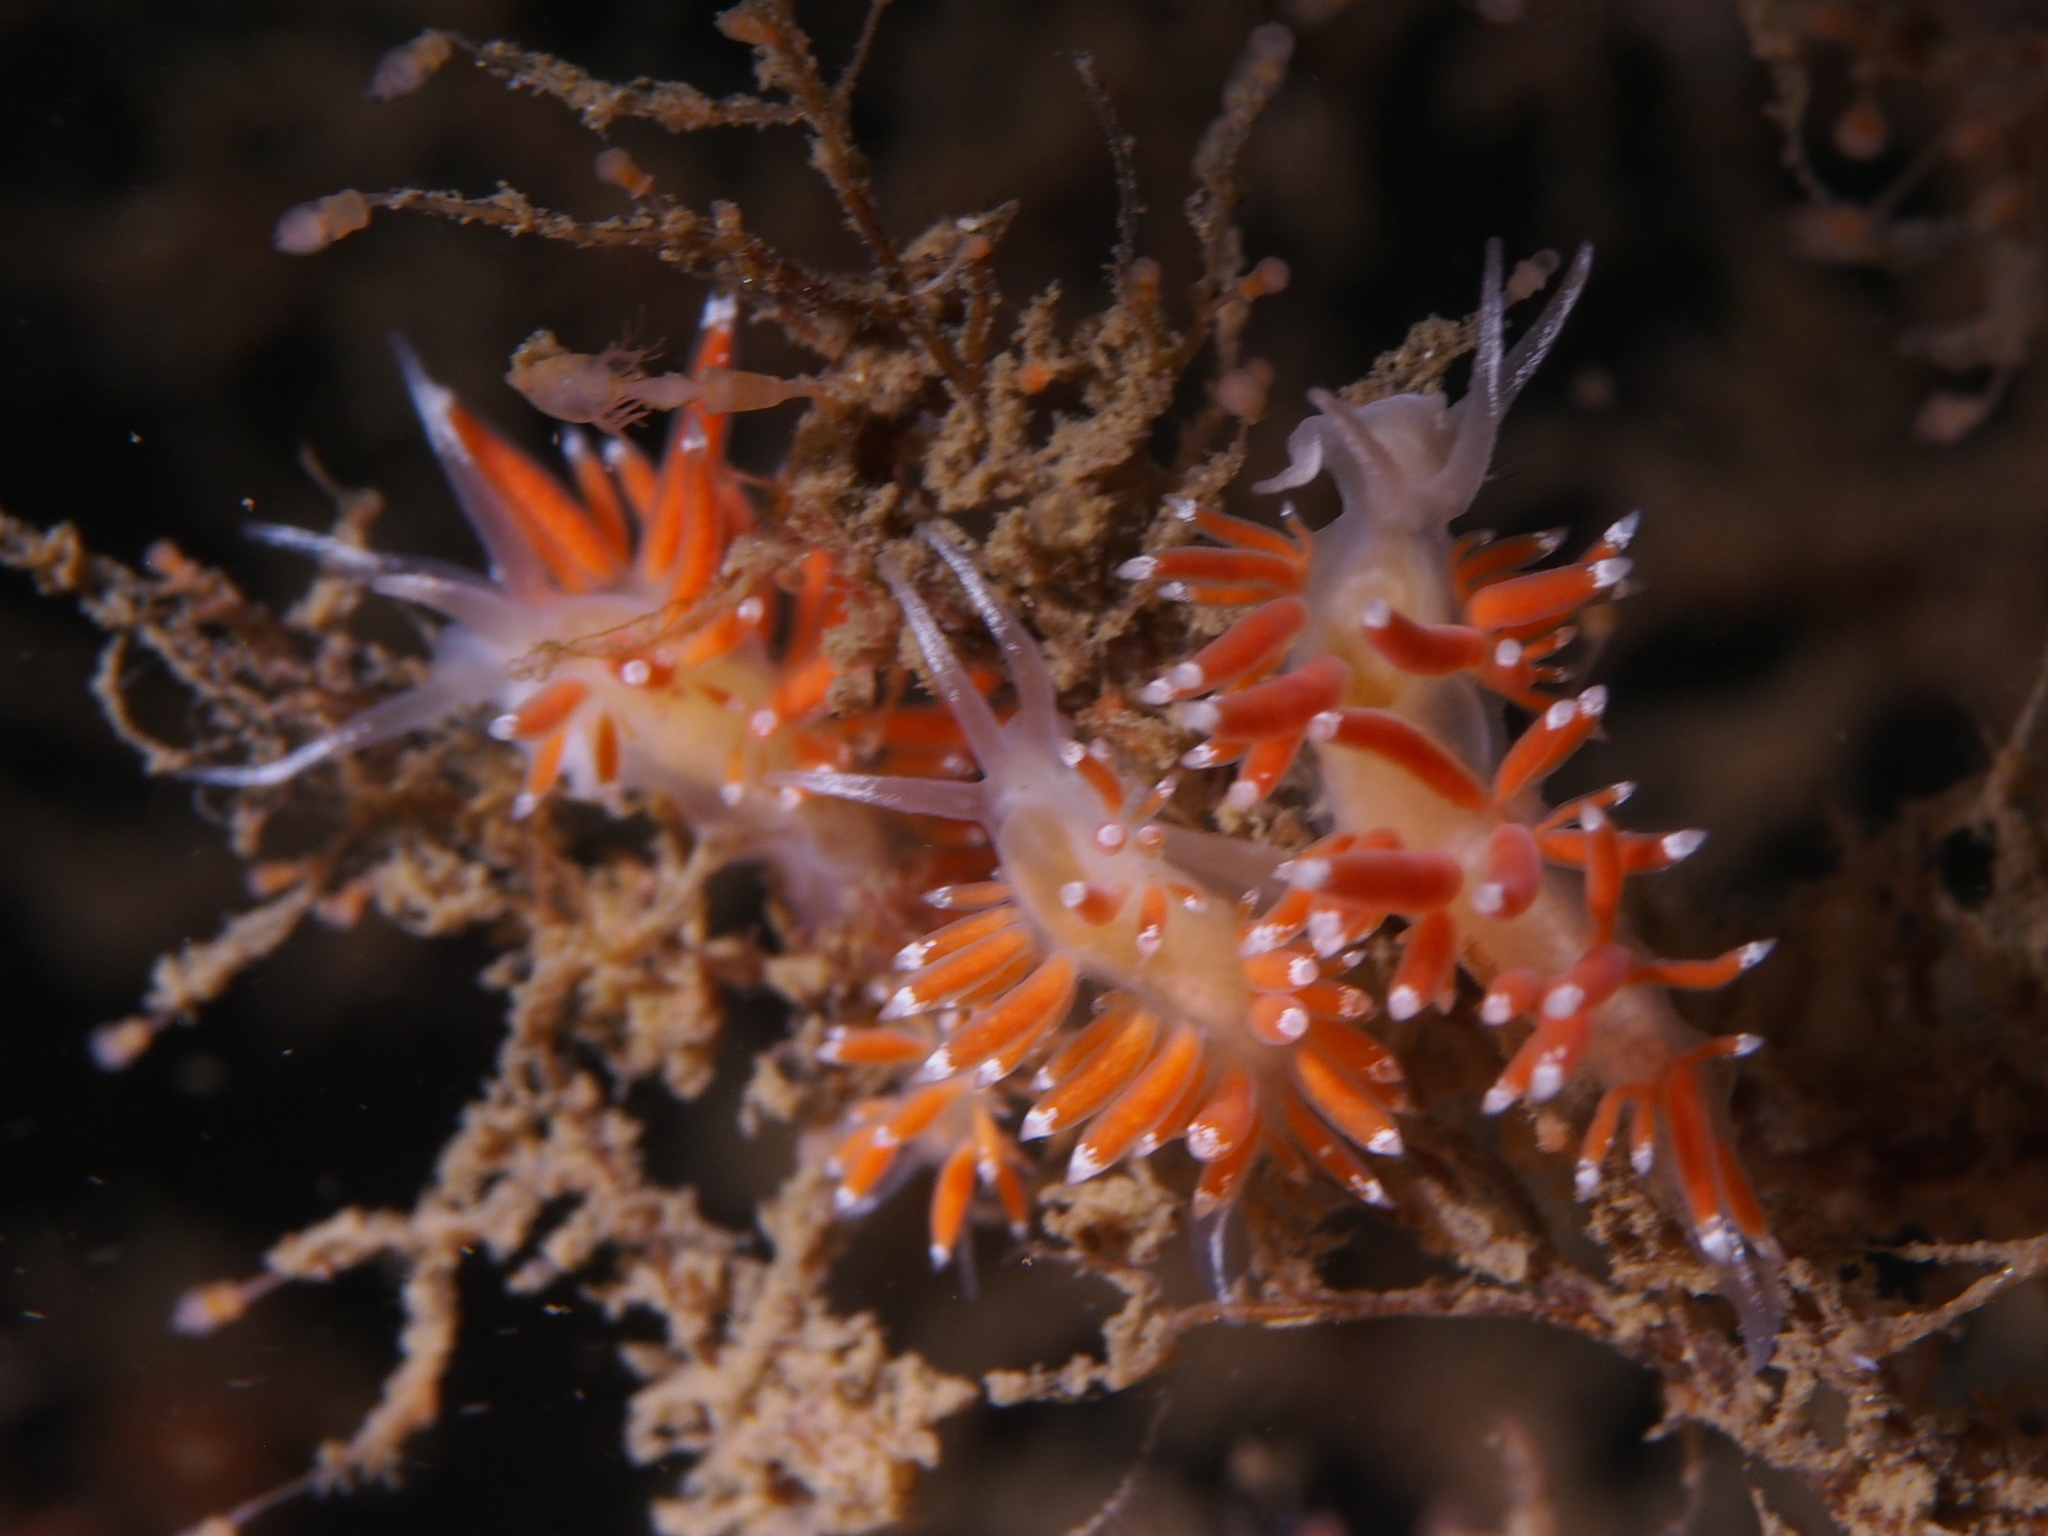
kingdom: Animalia
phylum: Mollusca
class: Gastropoda
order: Nudibranchia
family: Coryphellidae
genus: Coryphella
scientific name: Coryphella gracilis
